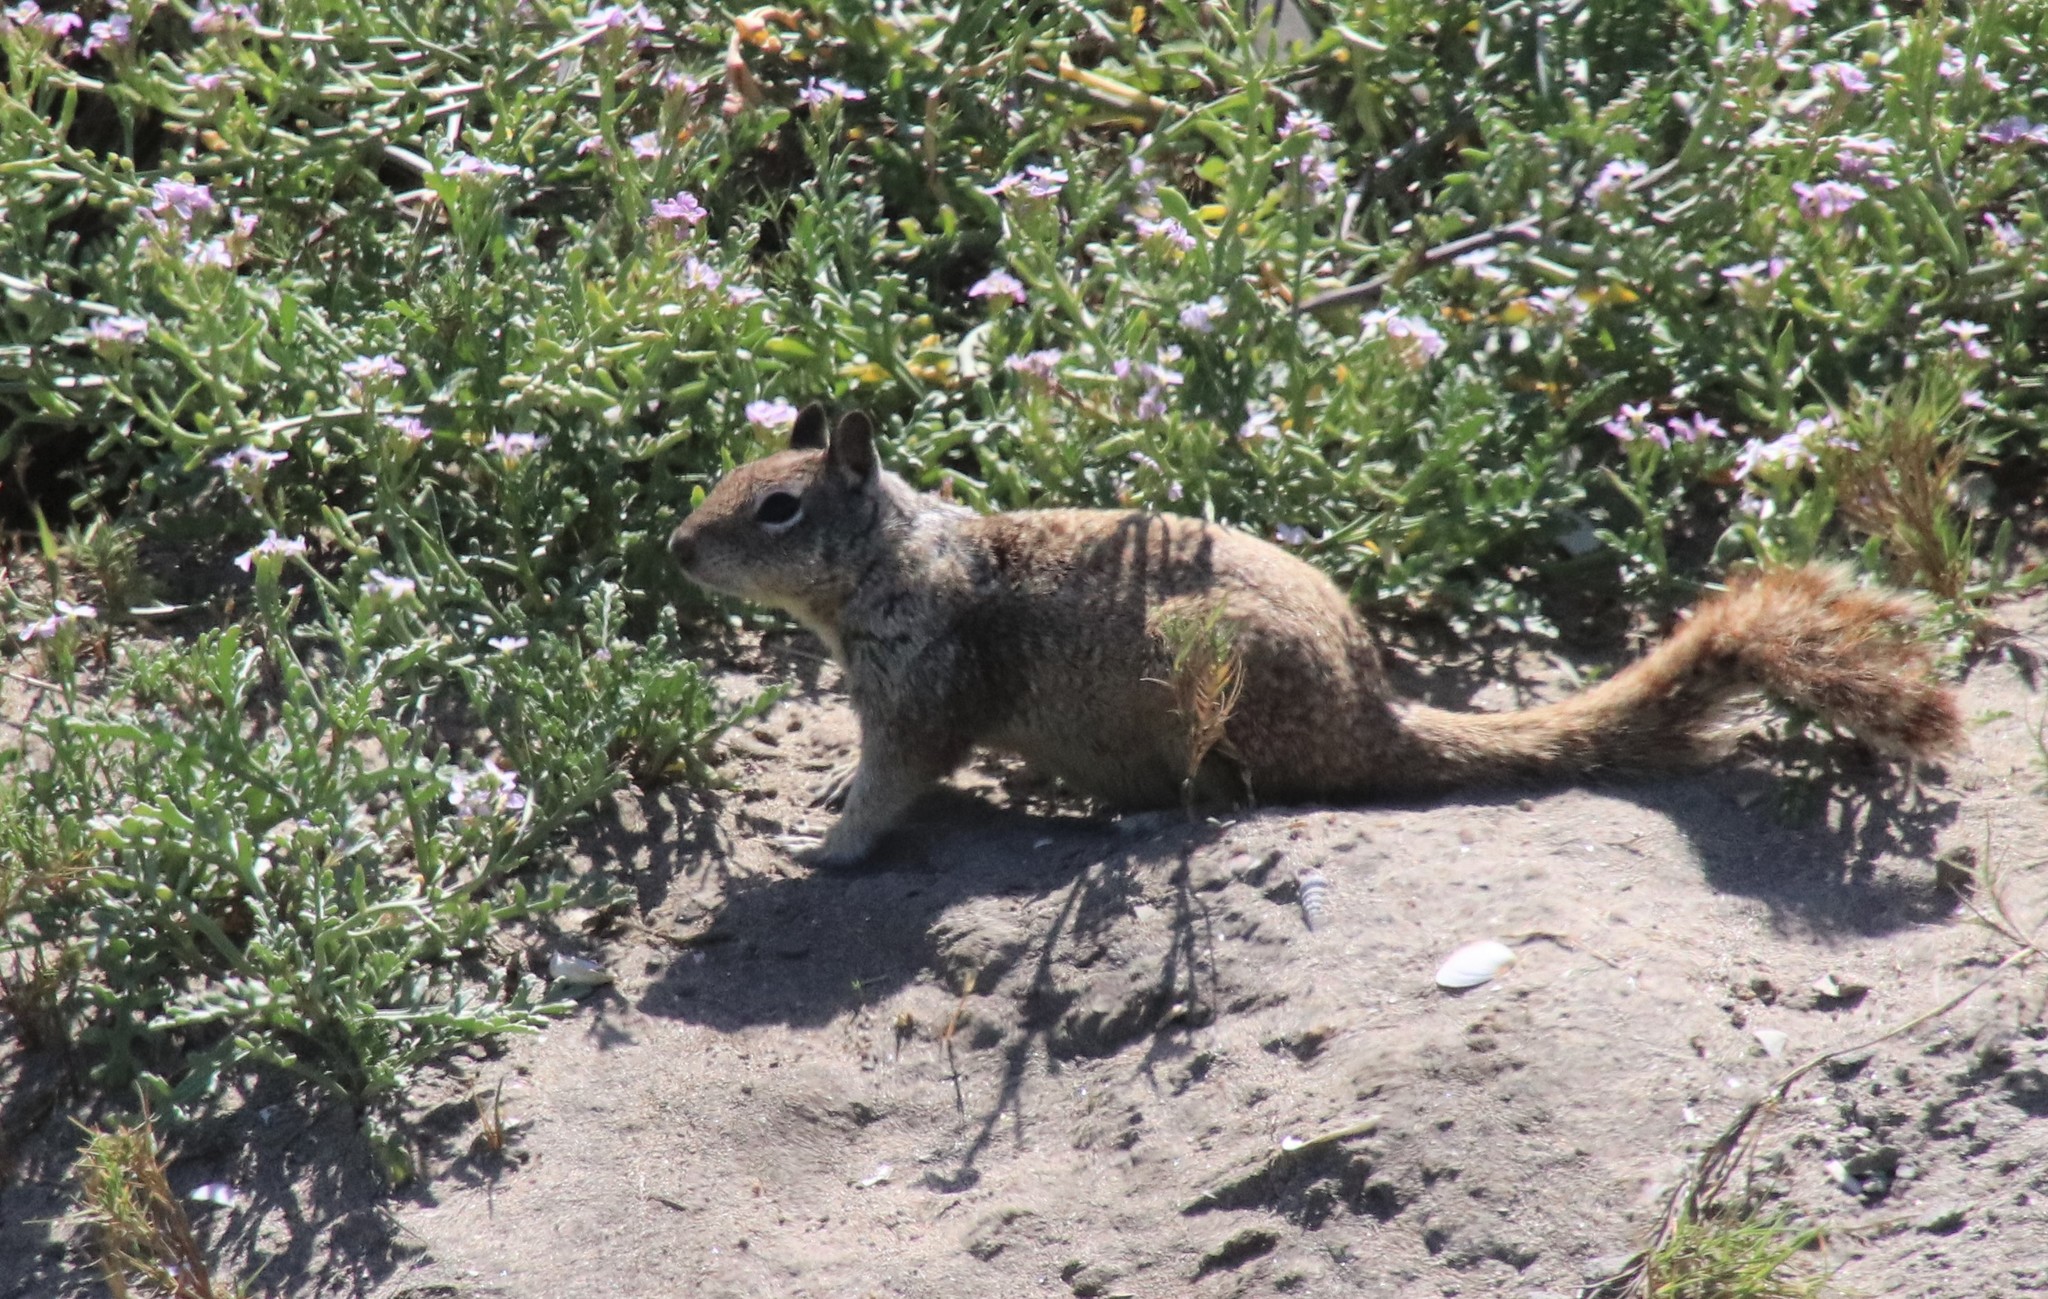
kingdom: Animalia
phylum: Chordata
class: Mammalia
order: Rodentia
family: Sciuridae
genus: Otospermophilus
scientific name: Otospermophilus beecheyi
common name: California ground squirrel
